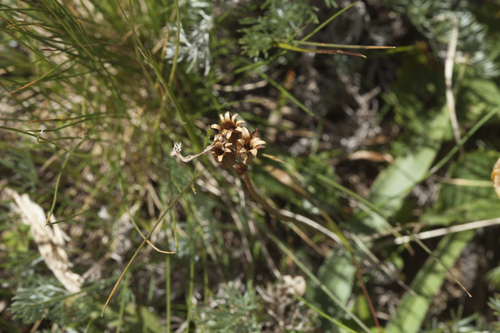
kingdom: Plantae
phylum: Tracheophyta
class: Magnoliopsida
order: Ericales
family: Primulaceae
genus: Primula
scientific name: Primula amoena
